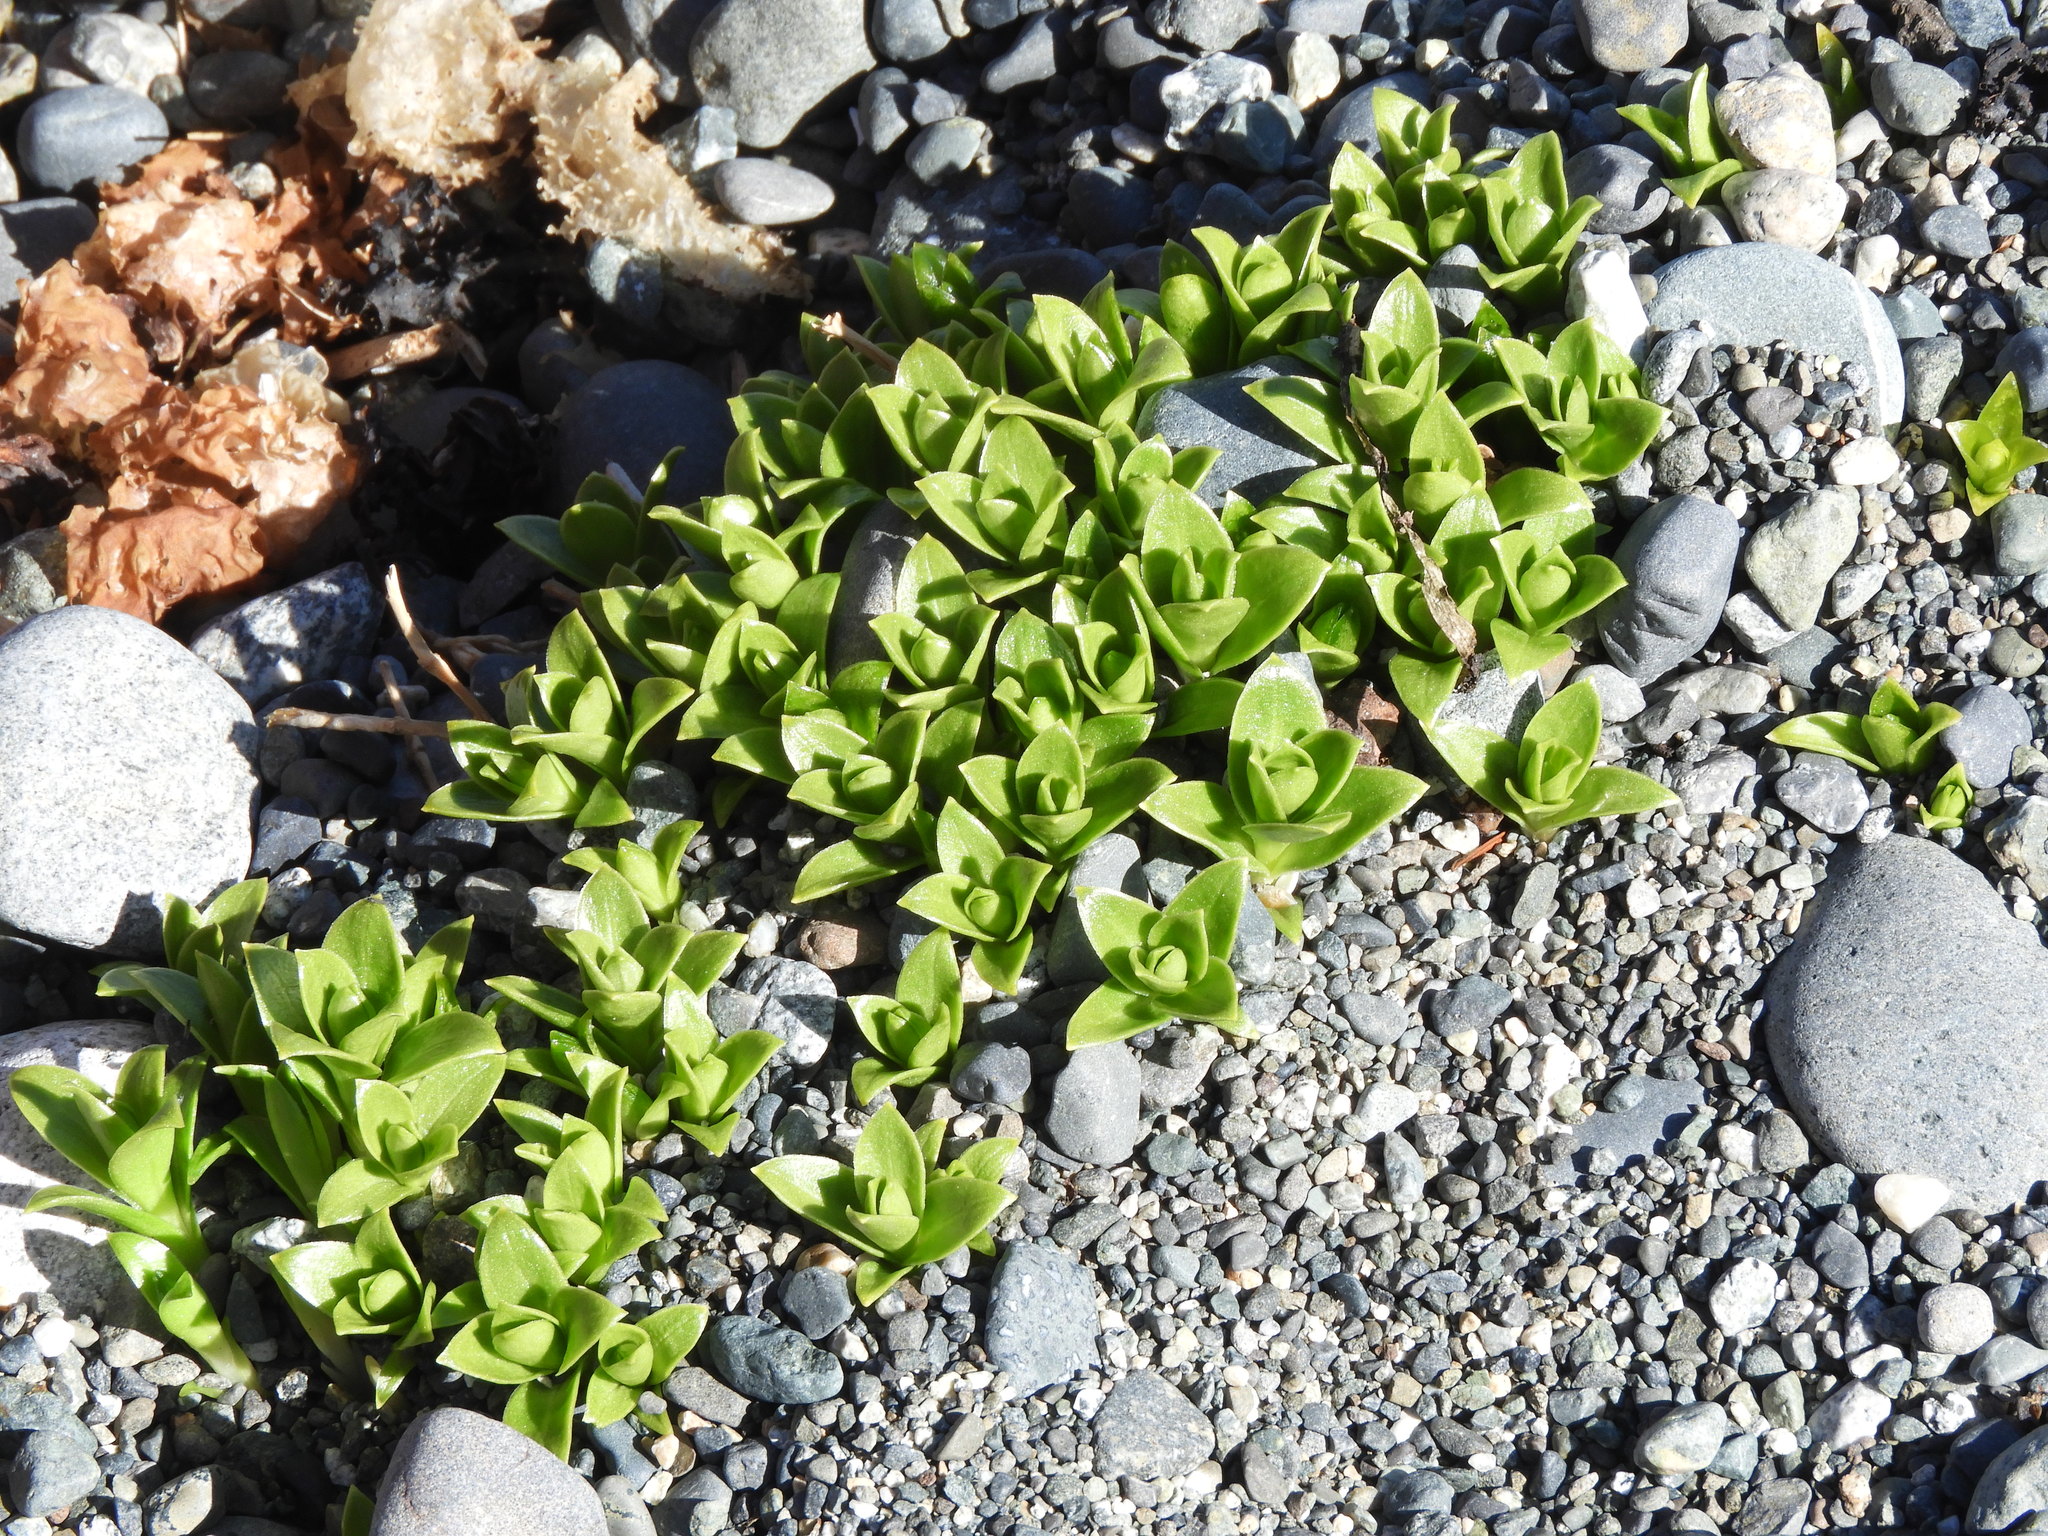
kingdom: Plantae
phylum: Tracheophyta
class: Magnoliopsida
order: Caryophyllales
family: Caryophyllaceae
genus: Honckenya
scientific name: Honckenya peploides
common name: Sea sandwort
